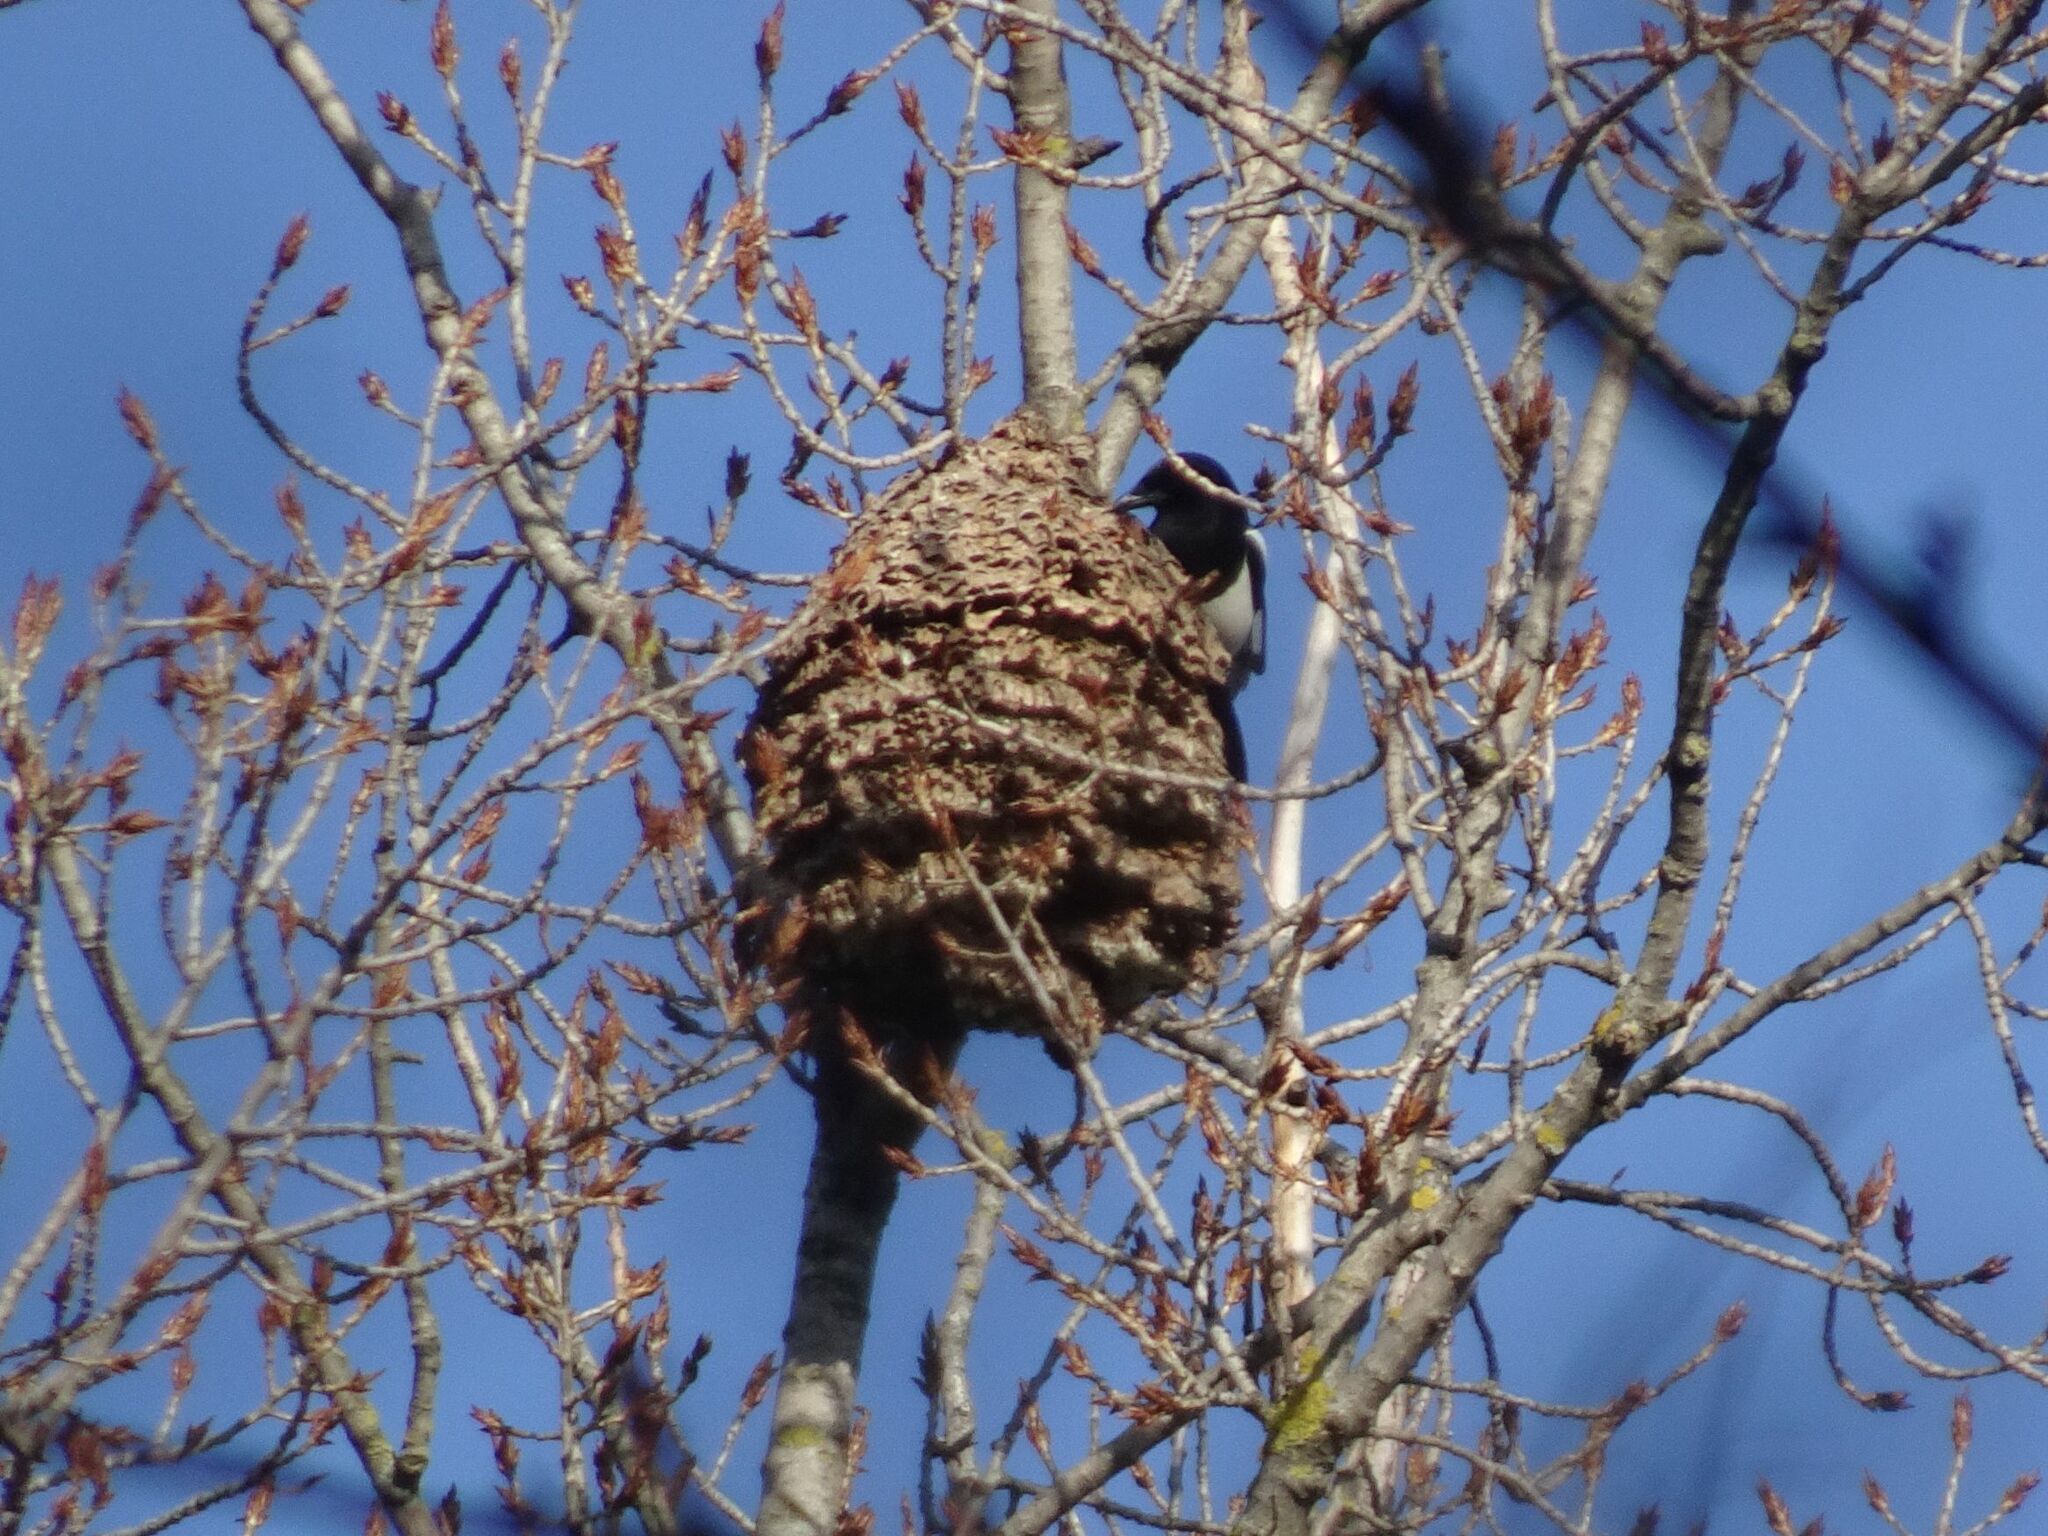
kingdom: Animalia
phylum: Chordata
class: Aves
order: Passeriformes
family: Corvidae
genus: Pica
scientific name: Pica pica
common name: Eurasian magpie
